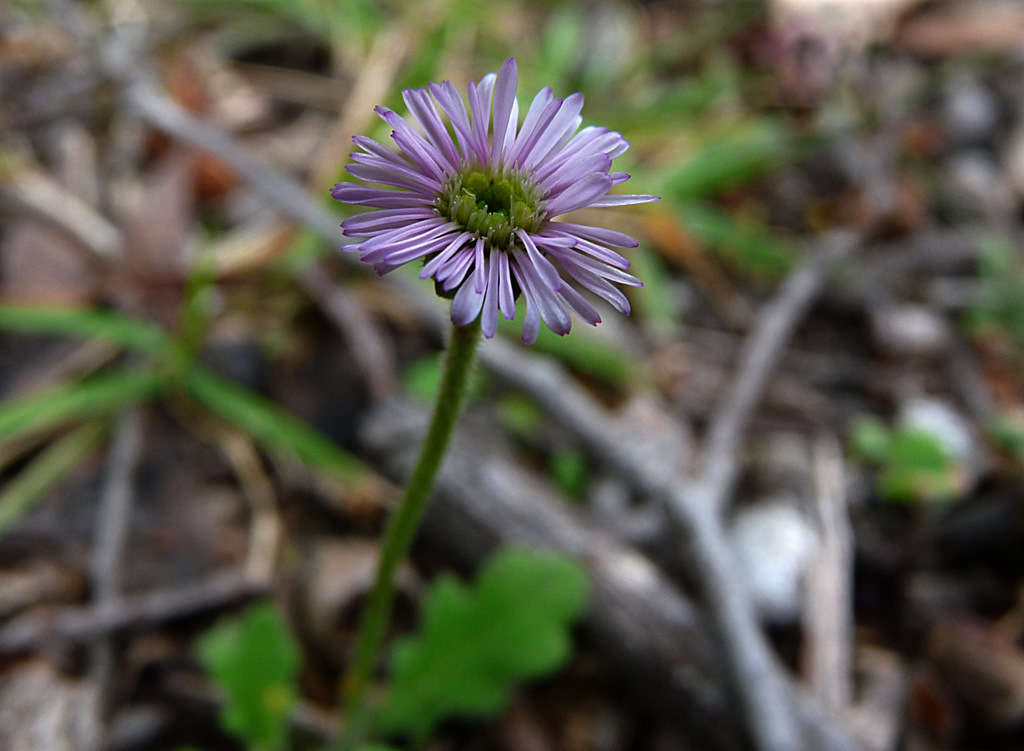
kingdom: Plantae
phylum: Tracheophyta
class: Magnoliopsida
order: Asterales
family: Asteraceae
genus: Lagenophora
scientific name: Lagenophora stipitata
